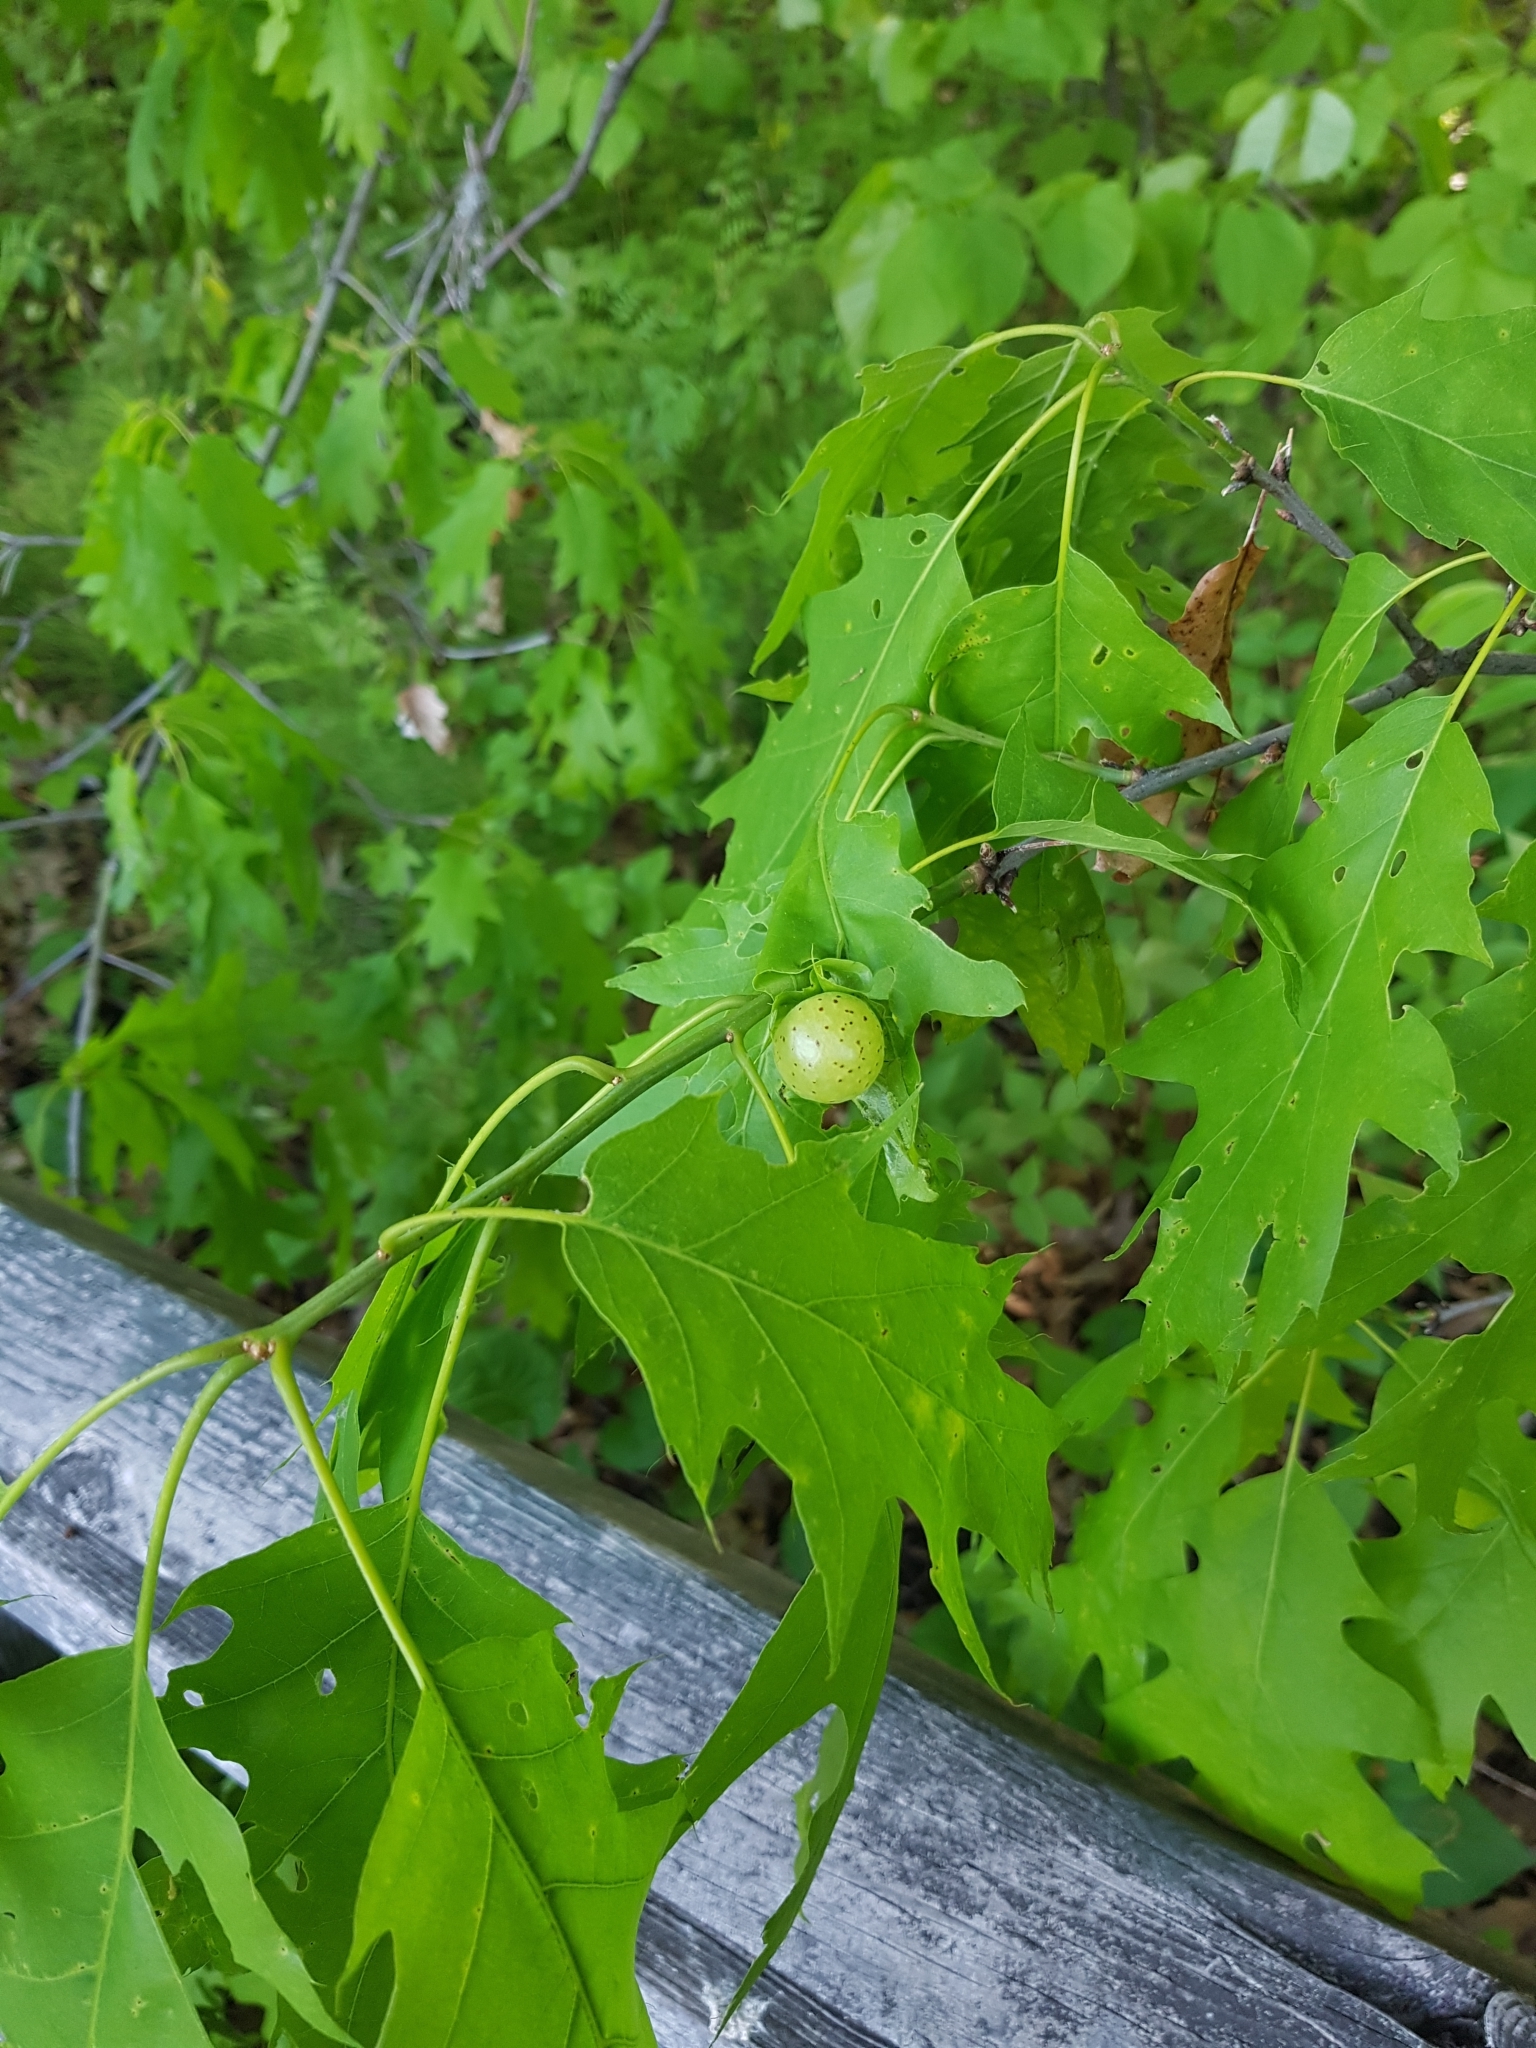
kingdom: Plantae
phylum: Tracheophyta
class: Magnoliopsida
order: Fagales
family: Fagaceae
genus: Quercus
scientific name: Quercus rubra
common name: Red oak
